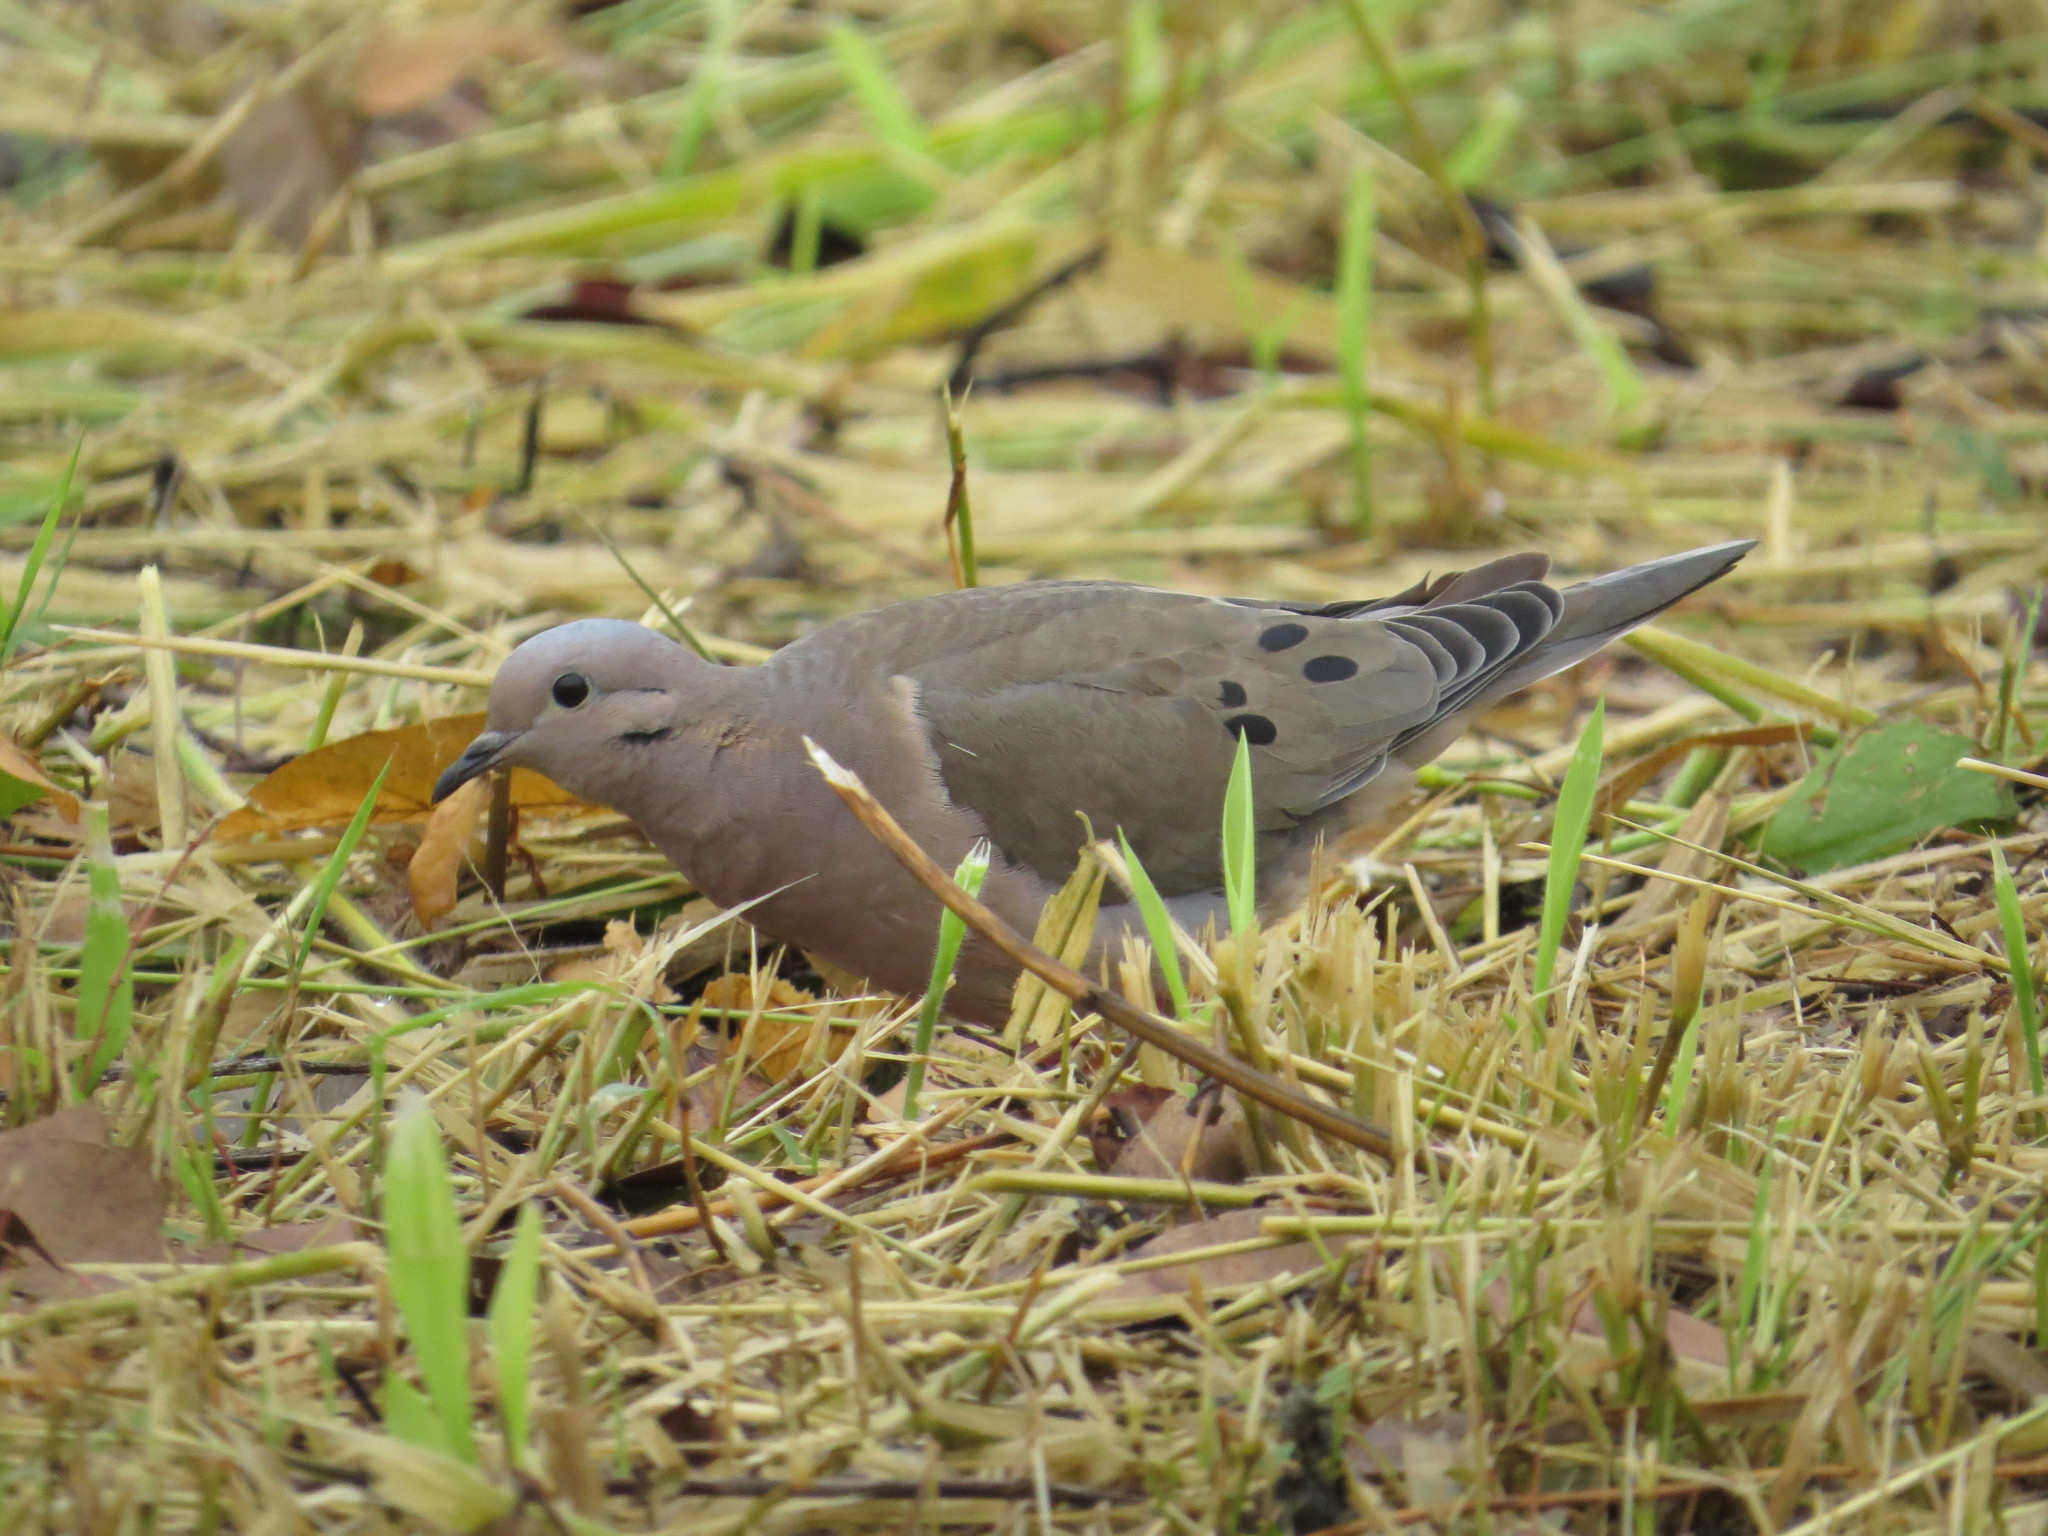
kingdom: Animalia
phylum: Chordata
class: Aves
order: Columbiformes
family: Columbidae
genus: Zenaida
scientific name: Zenaida auriculata
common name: Eared dove
